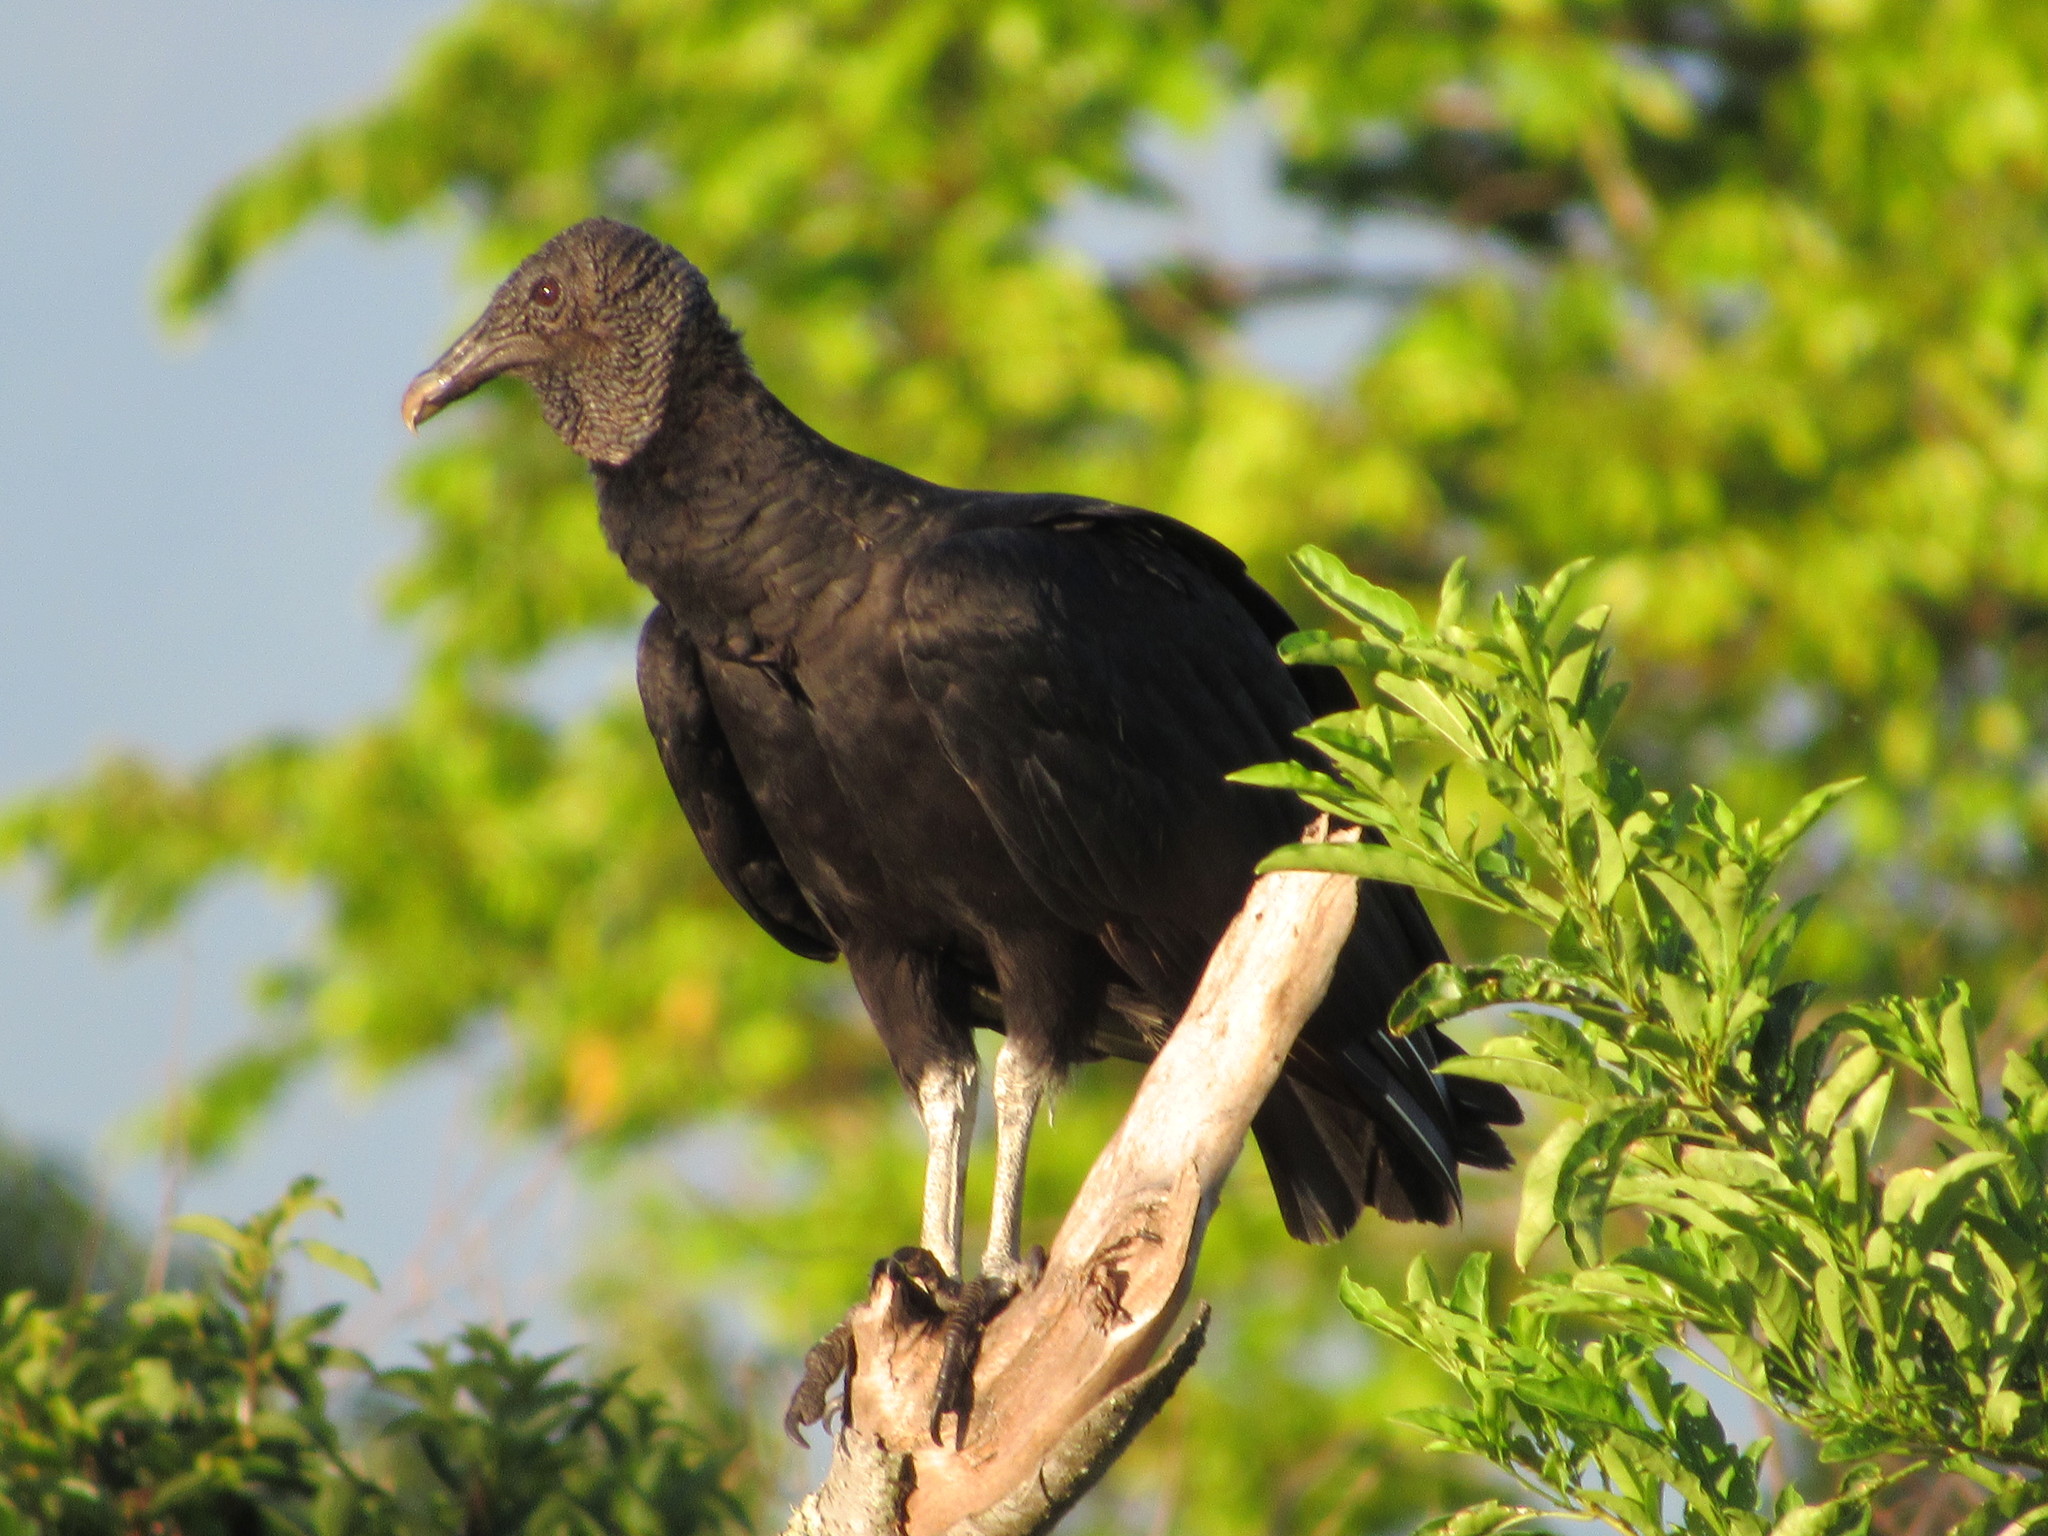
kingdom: Animalia
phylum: Chordata
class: Aves
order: Accipitriformes
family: Cathartidae
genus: Coragyps
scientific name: Coragyps atratus
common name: Black vulture
